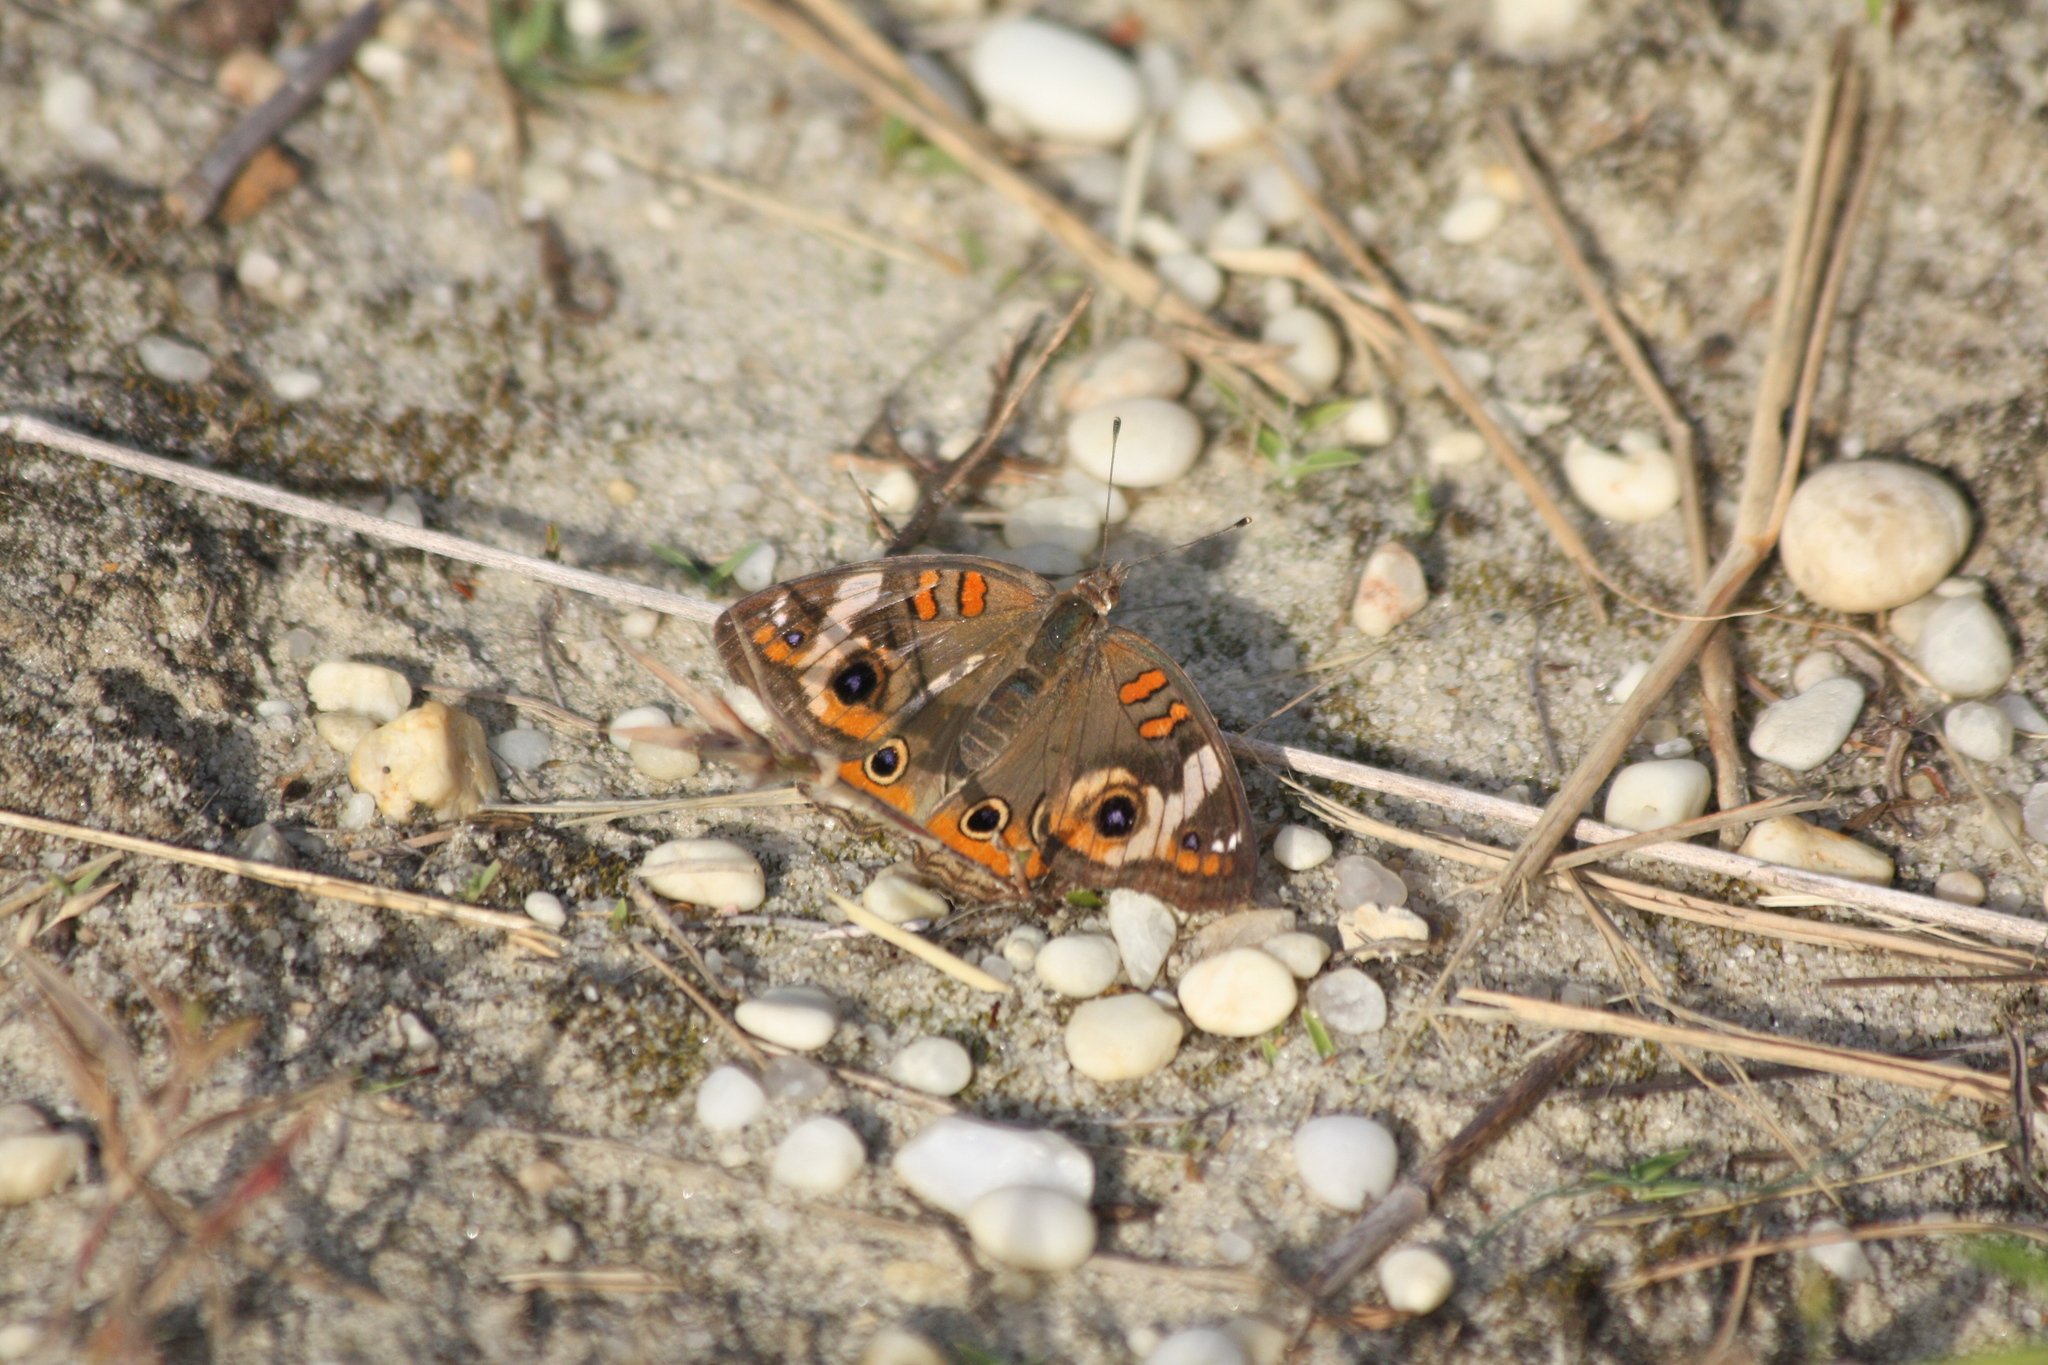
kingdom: Animalia
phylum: Arthropoda
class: Insecta
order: Lepidoptera
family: Nymphalidae
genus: Junonia
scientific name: Junonia coenia
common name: Common buckeye
